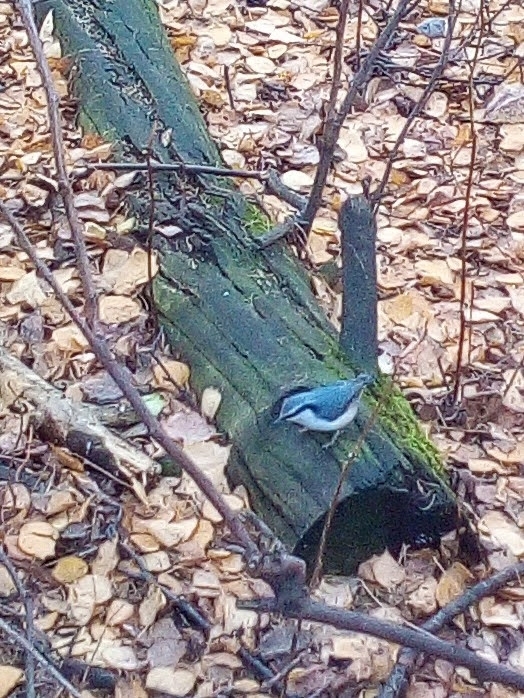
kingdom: Animalia
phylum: Chordata
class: Aves
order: Passeriformes
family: Sittidae
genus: Sitta
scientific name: Sitta europaea
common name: Eurasian nuthatch
